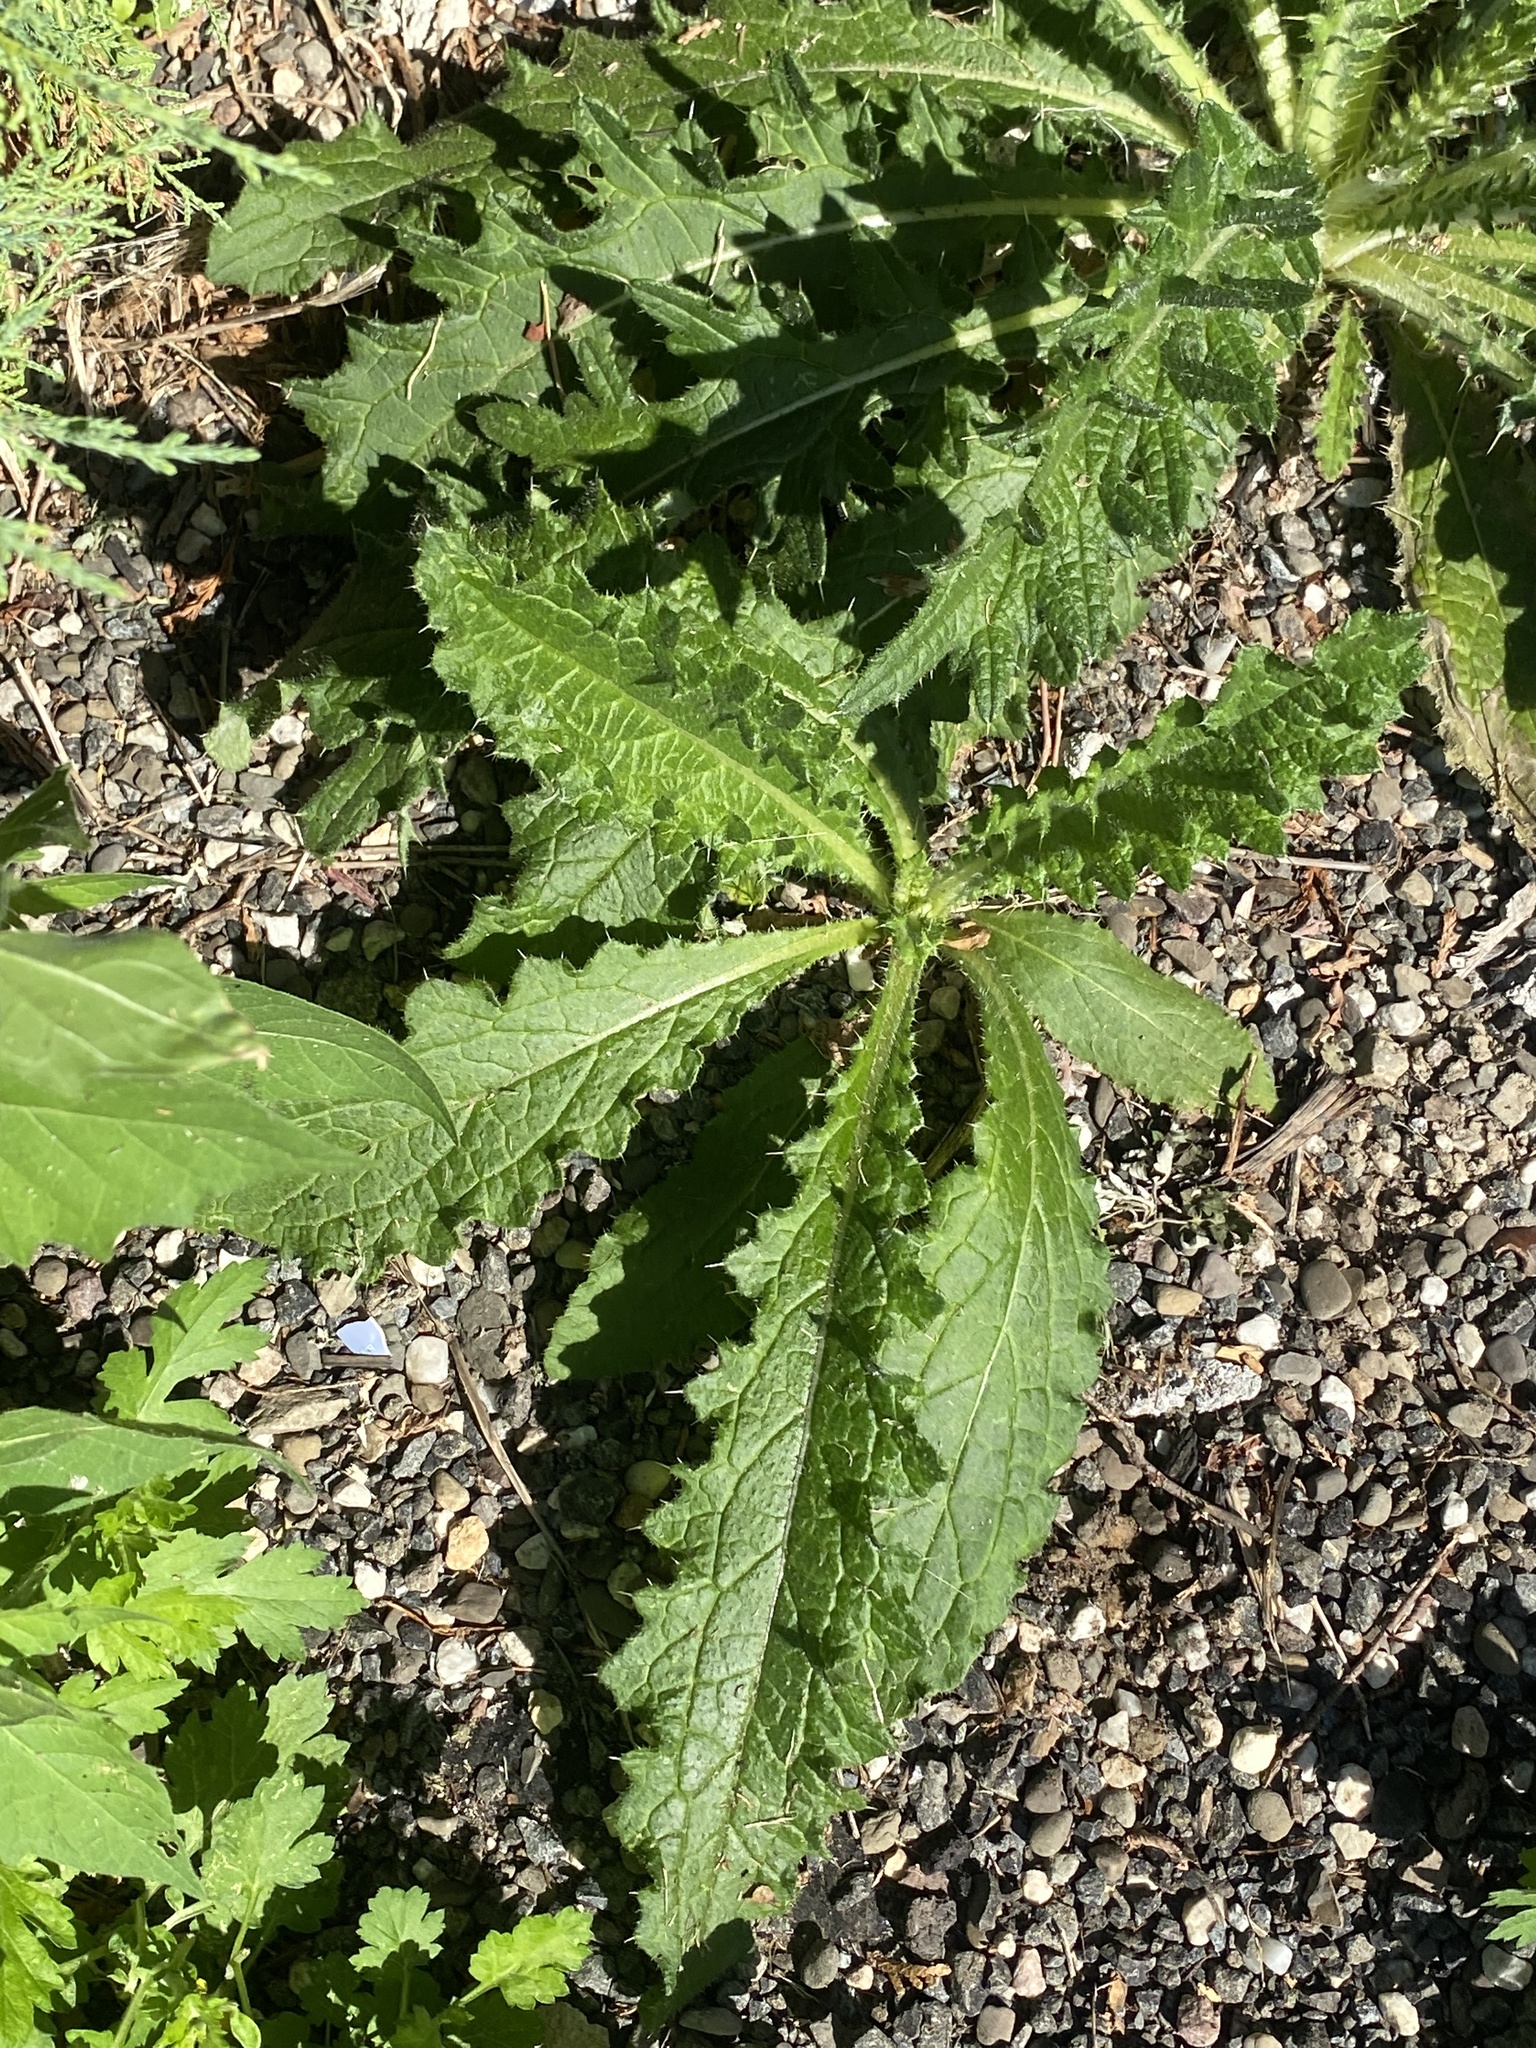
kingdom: Plantae
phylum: Tracheophyta
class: Magnoliopsida
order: Asterales
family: Asteraceae
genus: Cirsium
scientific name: Cirsium vulgare
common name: Bull thistle
